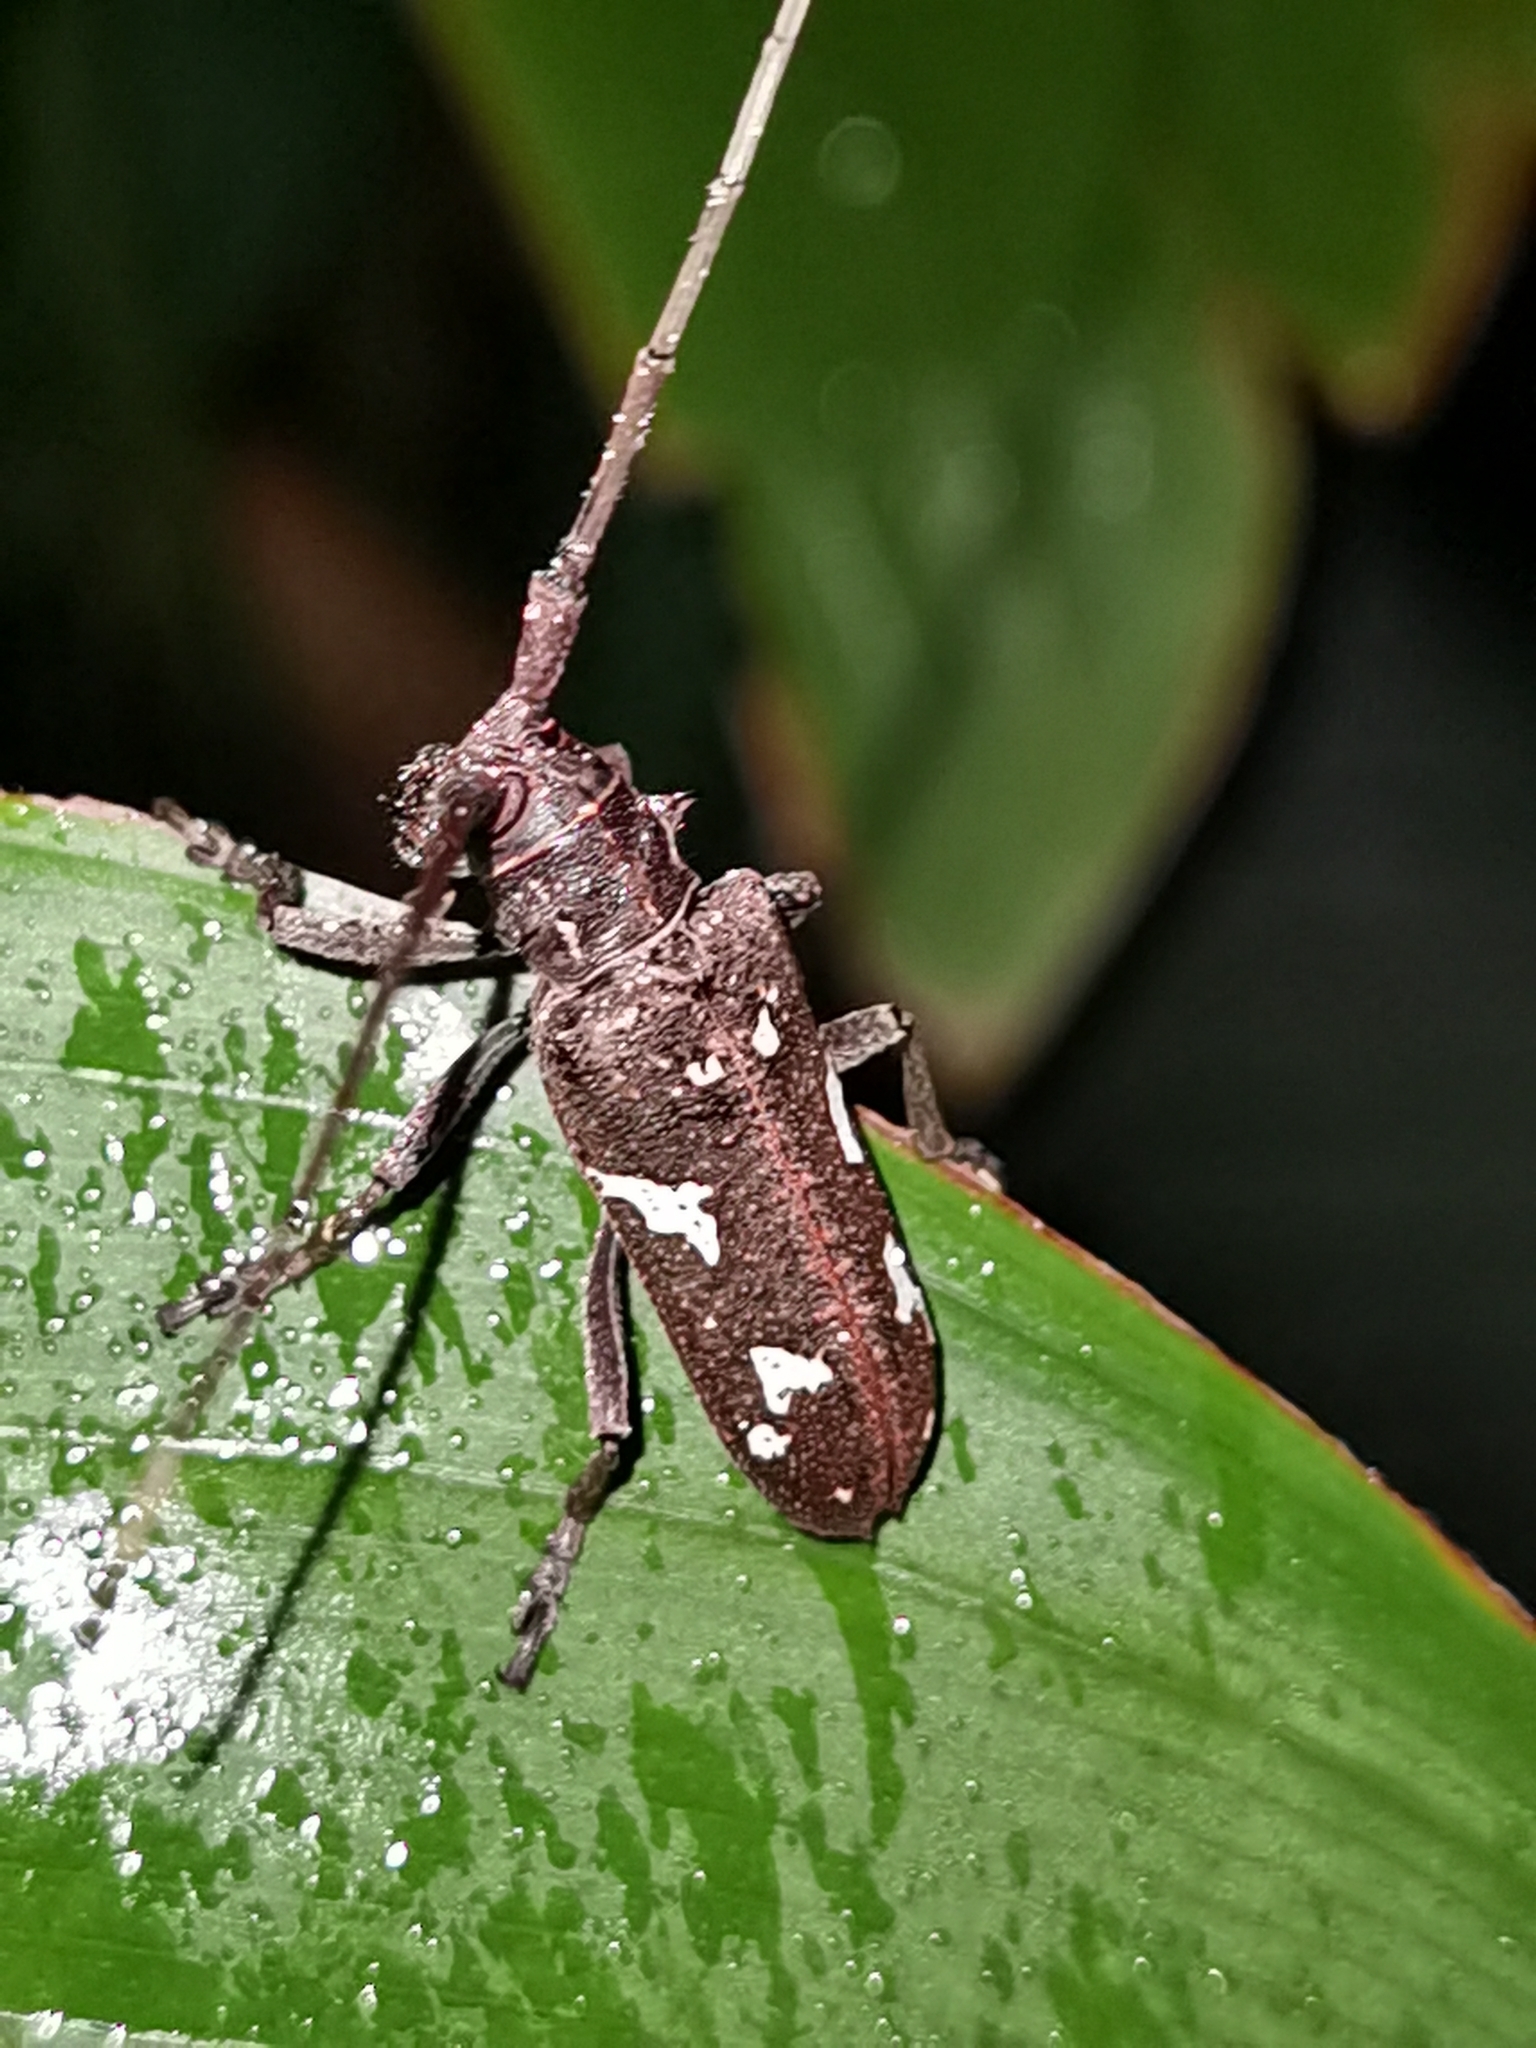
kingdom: Animalia
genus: Hammatoderus
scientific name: Hammatoderus thoracicus
